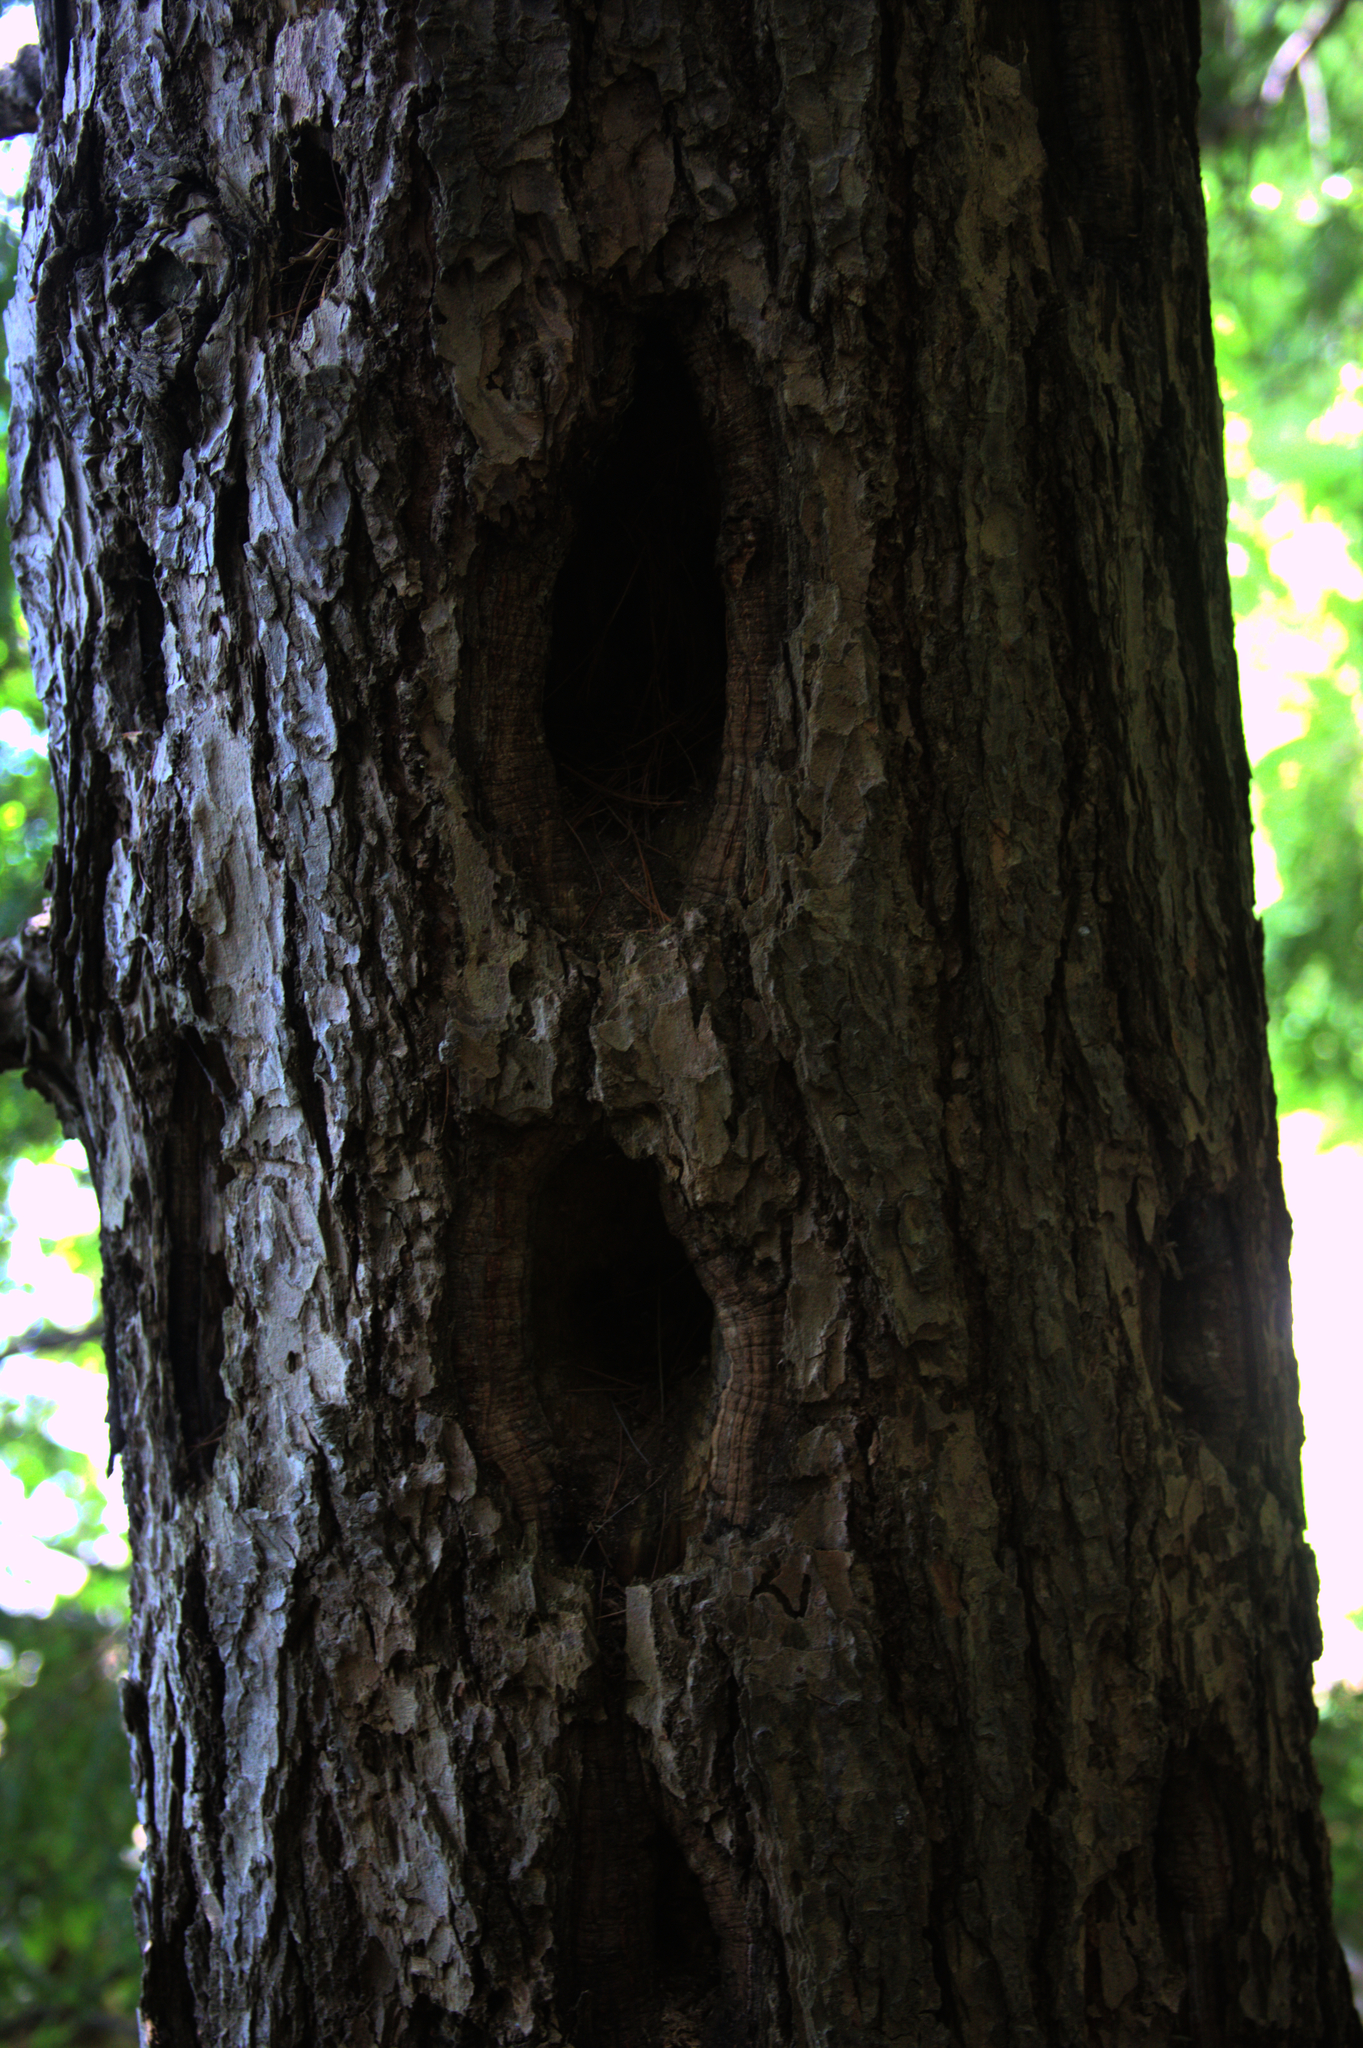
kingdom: Animalia
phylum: Chordata
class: Aves
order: Piciformes
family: Picidae
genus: Dryocopus
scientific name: Dryocopus pileatus
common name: Pileated woodpecker
